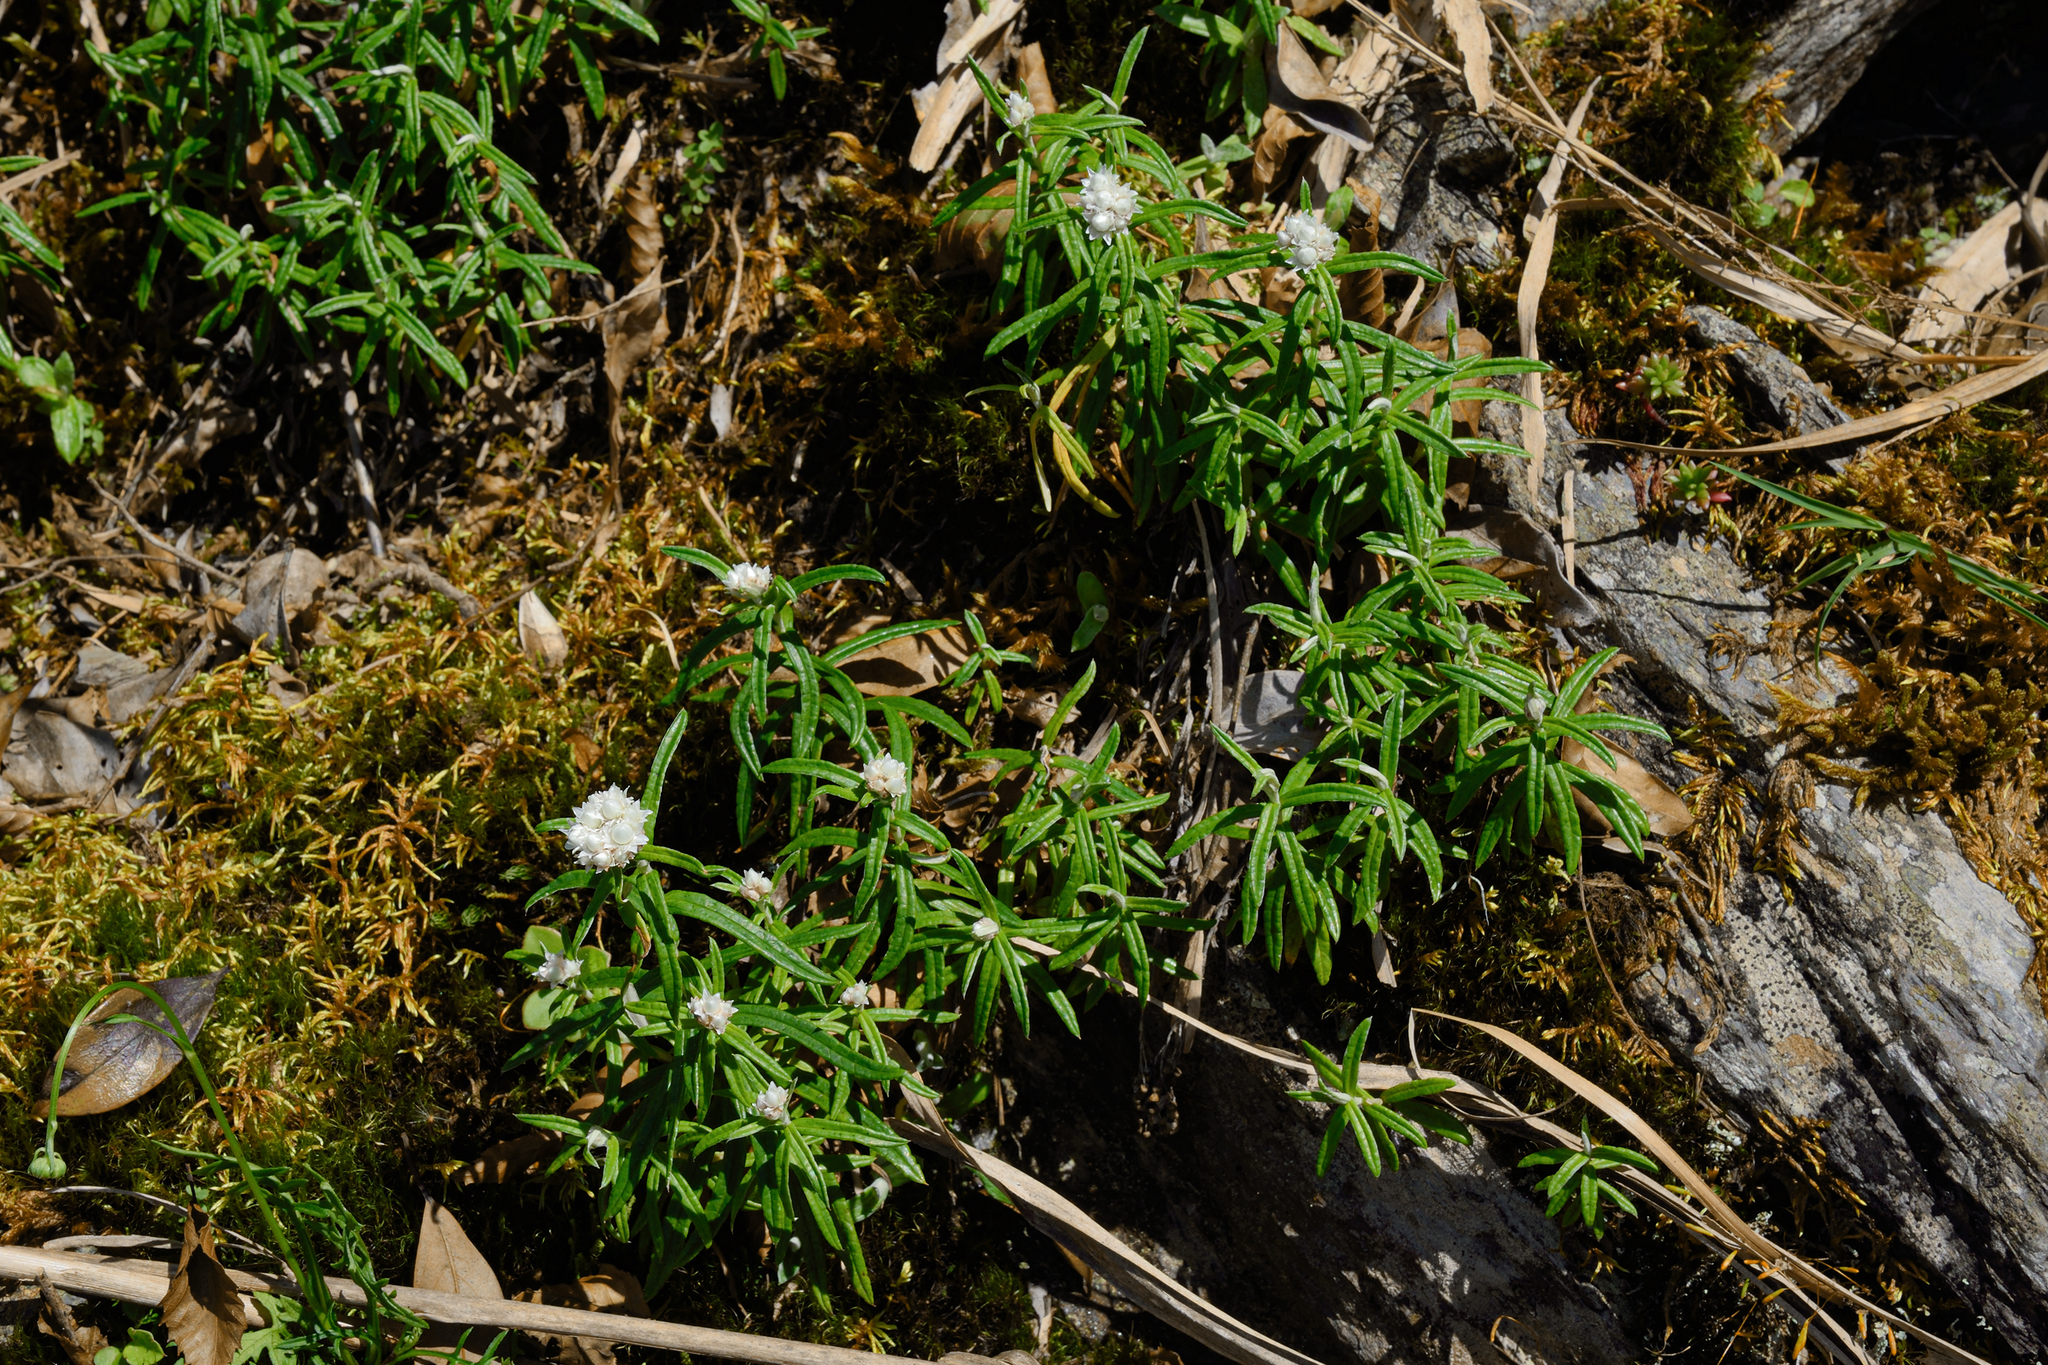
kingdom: Plantae
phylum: Tracheophyta
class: Magnoliopsida
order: Asterales
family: Asteraceae
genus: Anaphalis
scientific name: Anaphalis morrisonicola
